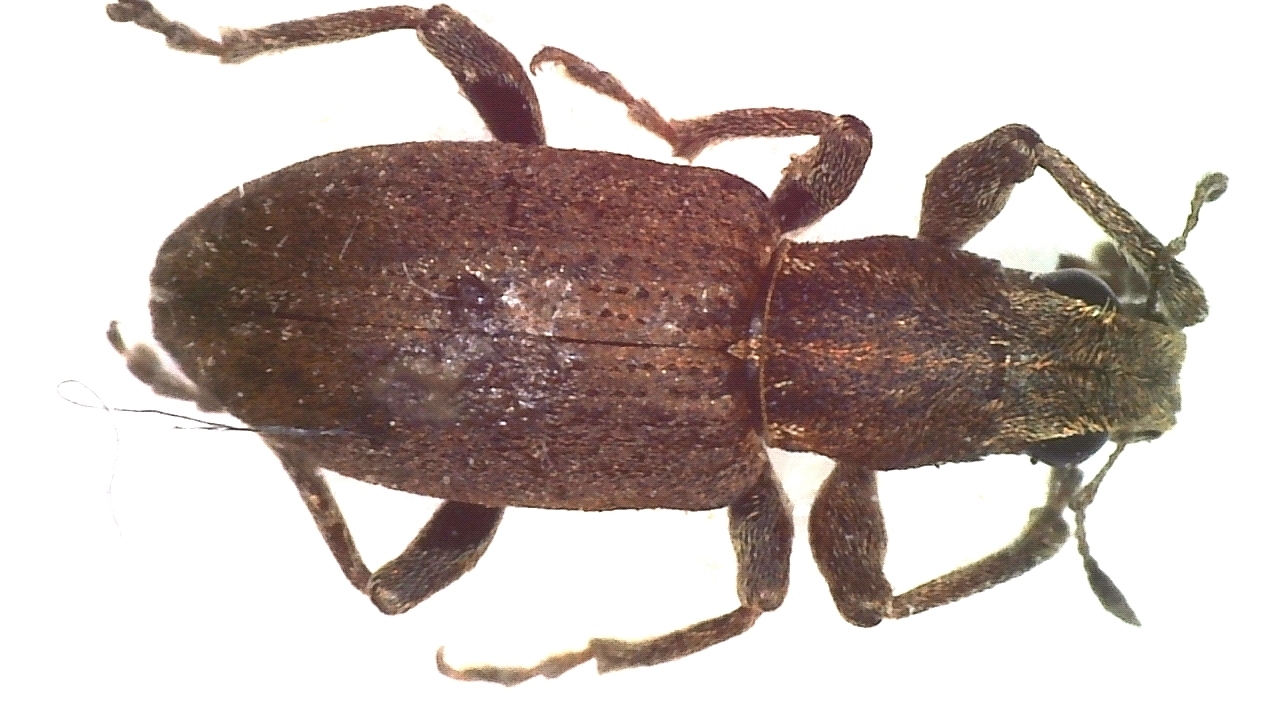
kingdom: Animalia
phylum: Arthropoda
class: Insecta
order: Coleoptera
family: Curculionidae
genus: Sitona
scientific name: Sitona obsoletus
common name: Weevil
